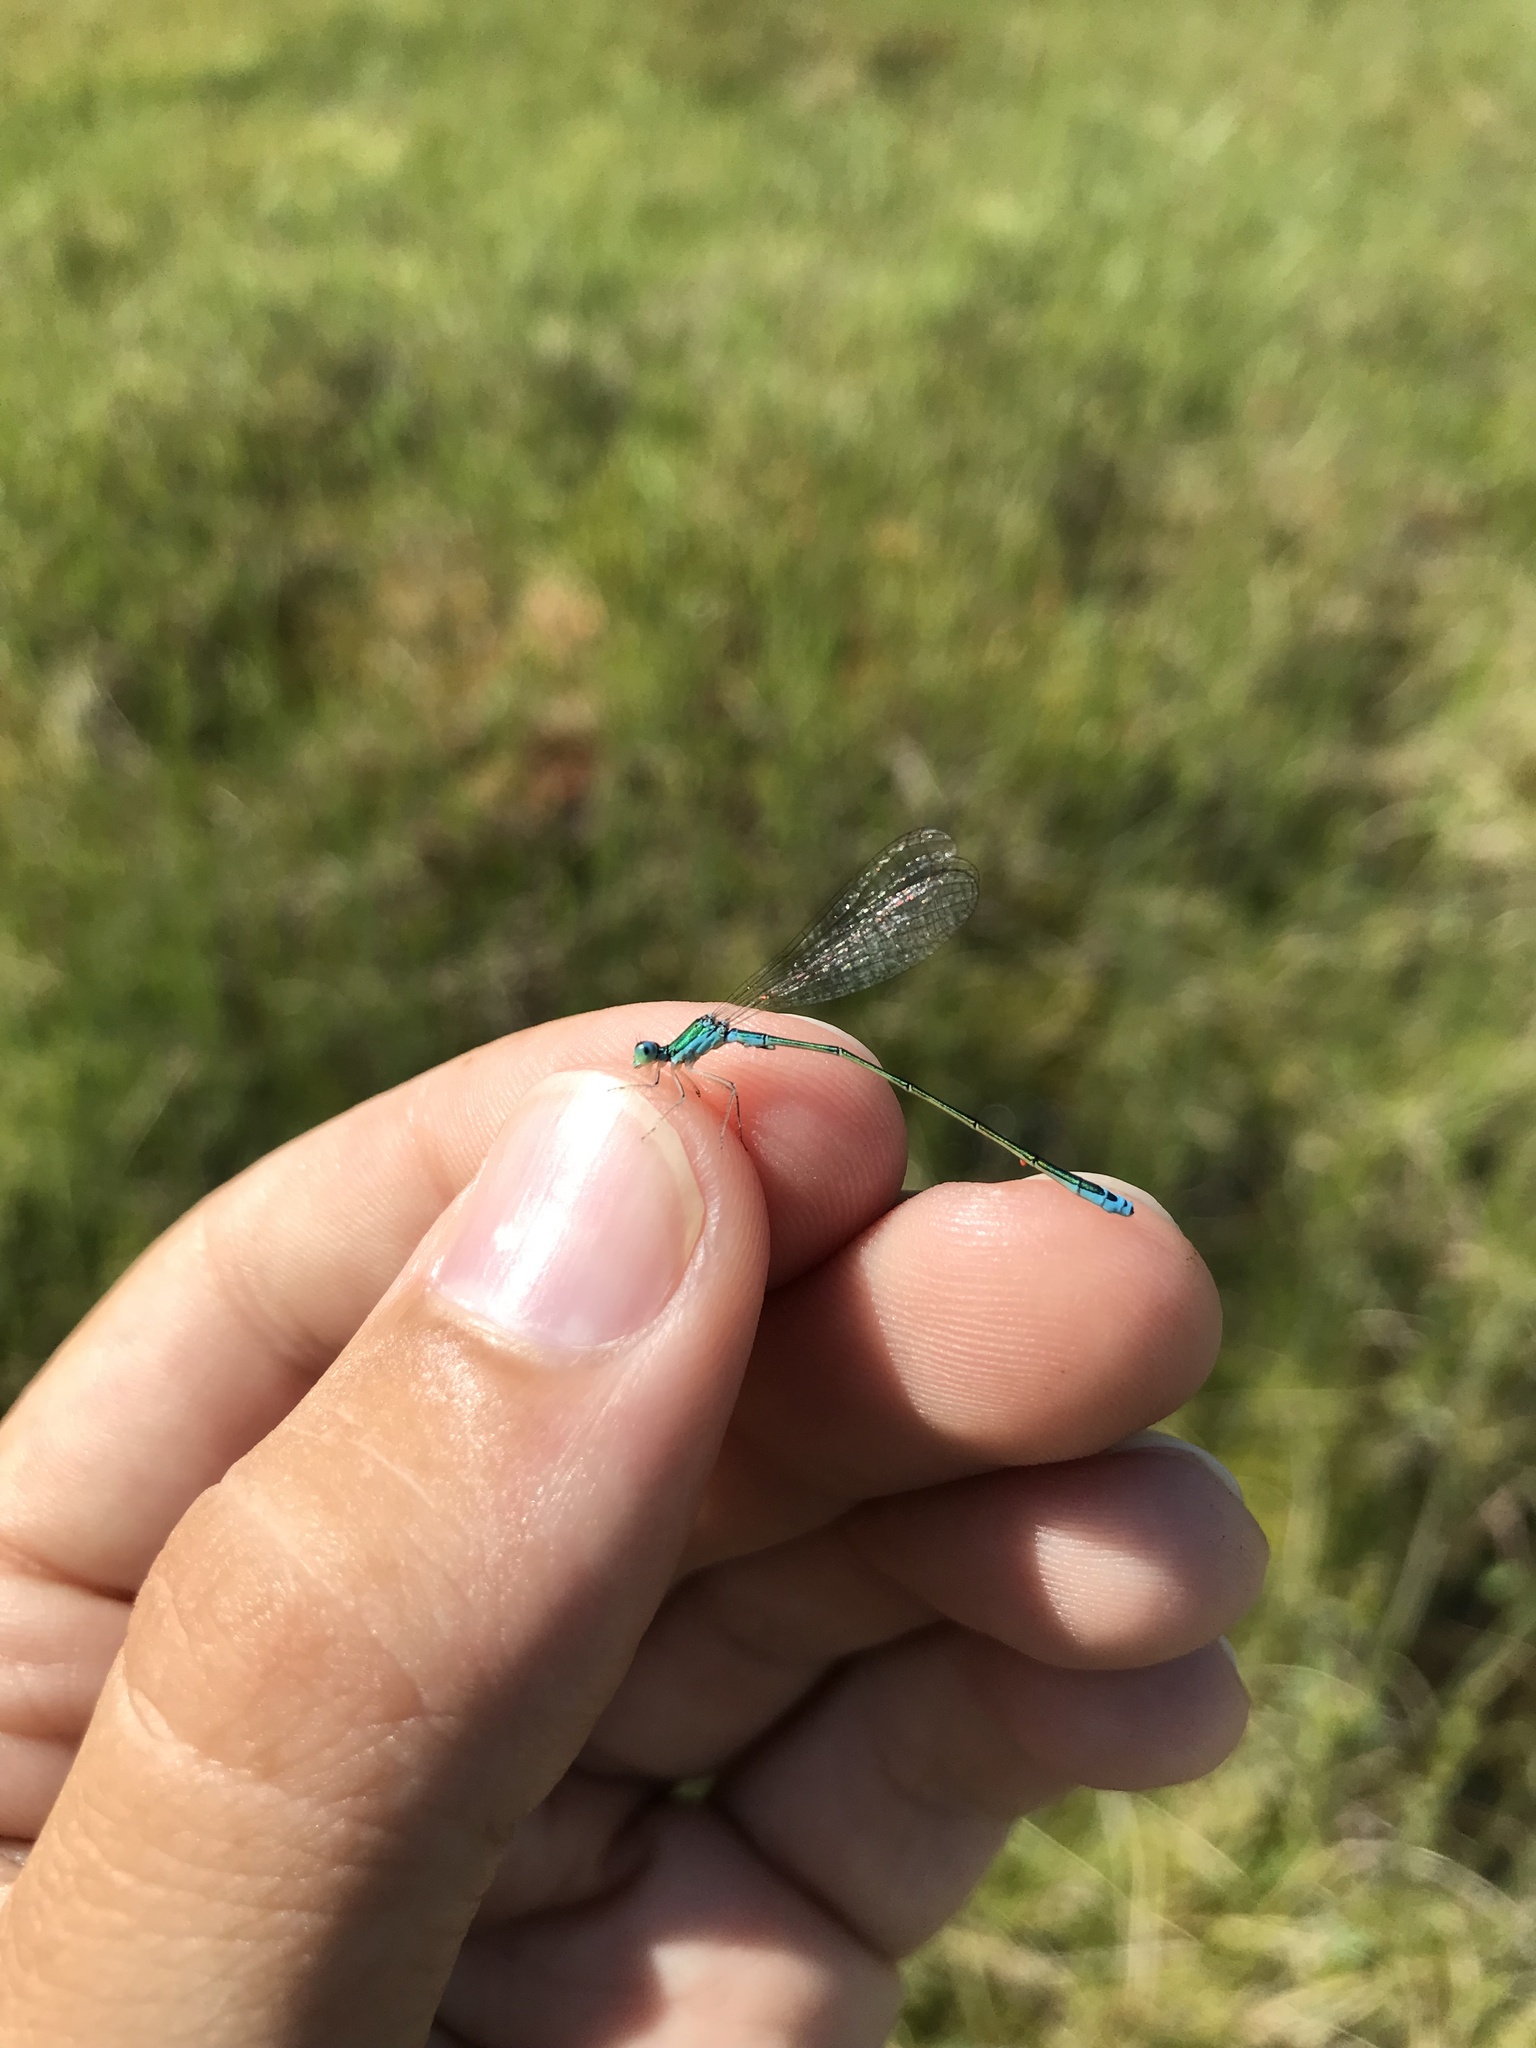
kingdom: Animalia
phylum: Arthropoda
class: Insecta
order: Odonata
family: Coenagrionidae
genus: Nehalennia
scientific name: Nehalennia irene
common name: Sedge sprite
